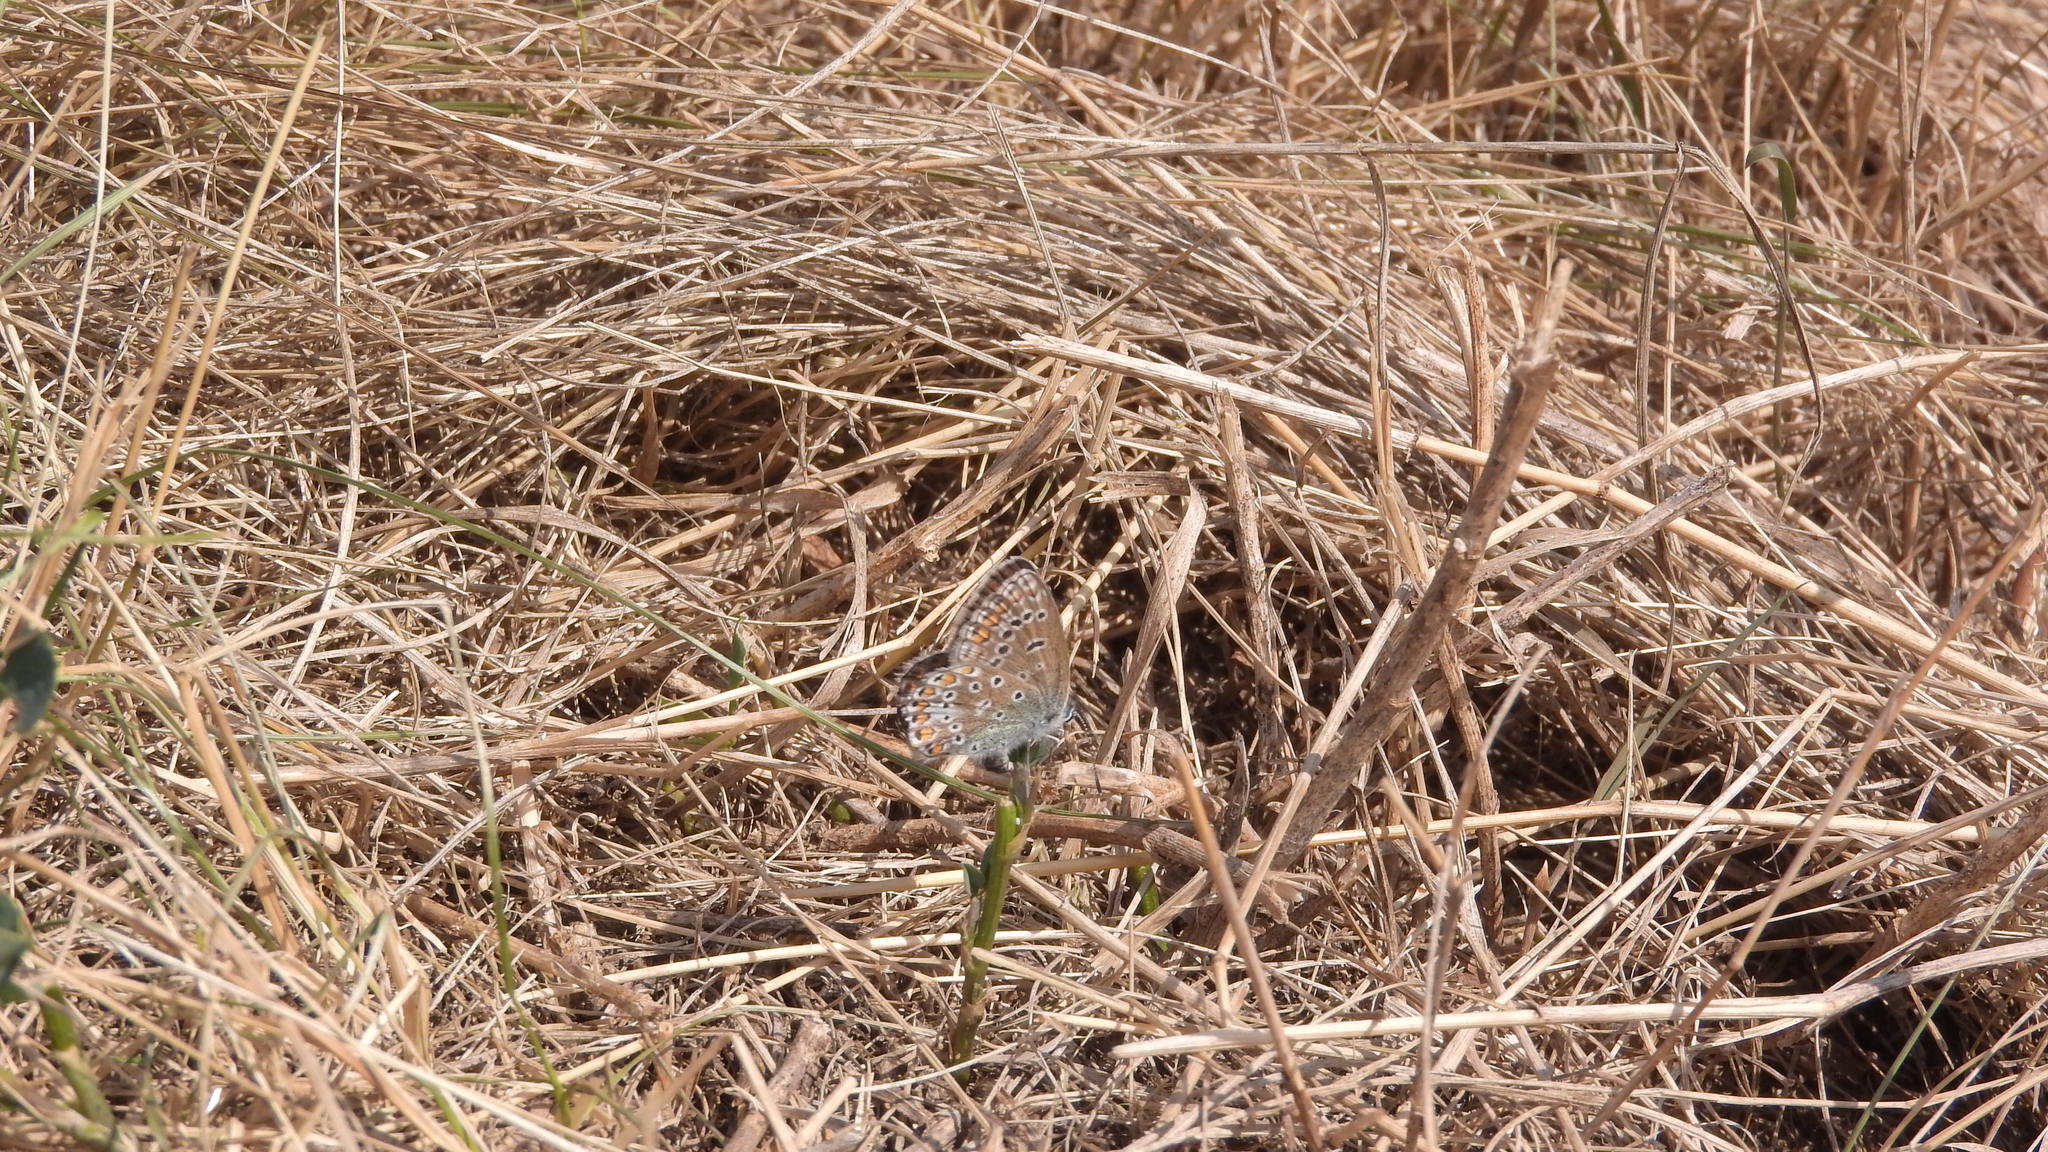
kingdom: Animalia
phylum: Arthropoda
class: Insecta
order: Lepidoptera
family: Lycaenidae
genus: Polyommatus
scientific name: Polyommatus icarus
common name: Common blue
